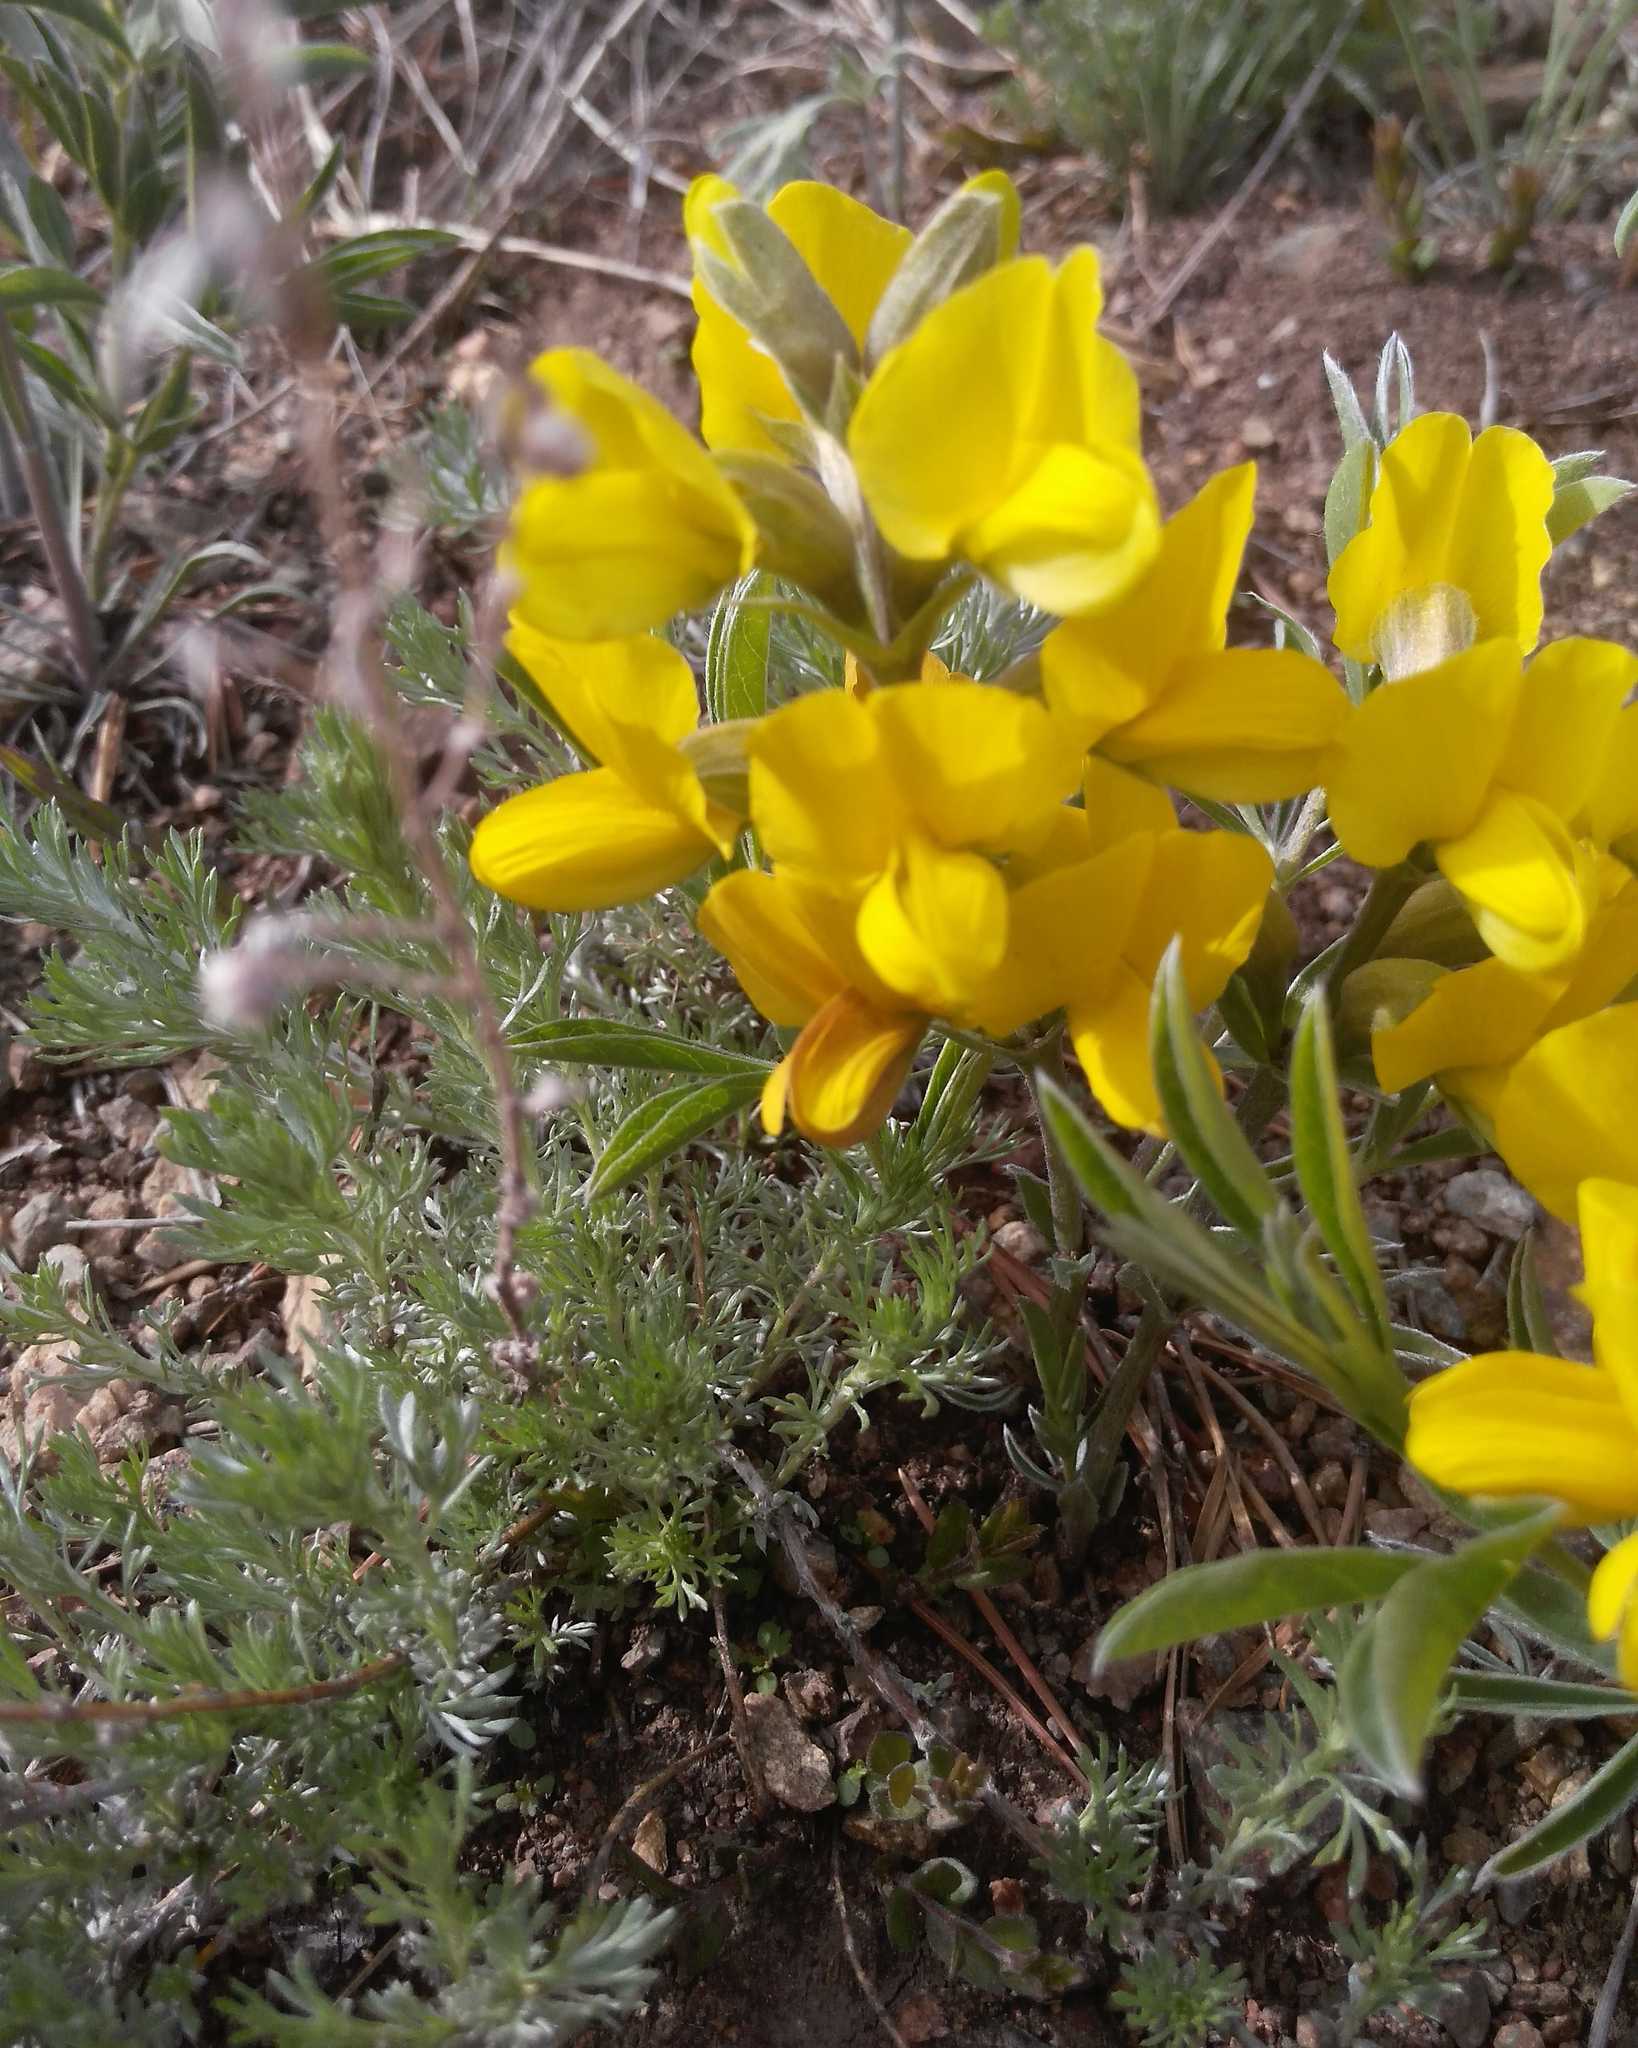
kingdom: Plantae
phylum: Tracheophyta
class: Magnoliopsida
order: Fabales
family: Fabaceae
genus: Thermopsis
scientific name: Thermopsis lanceolata
